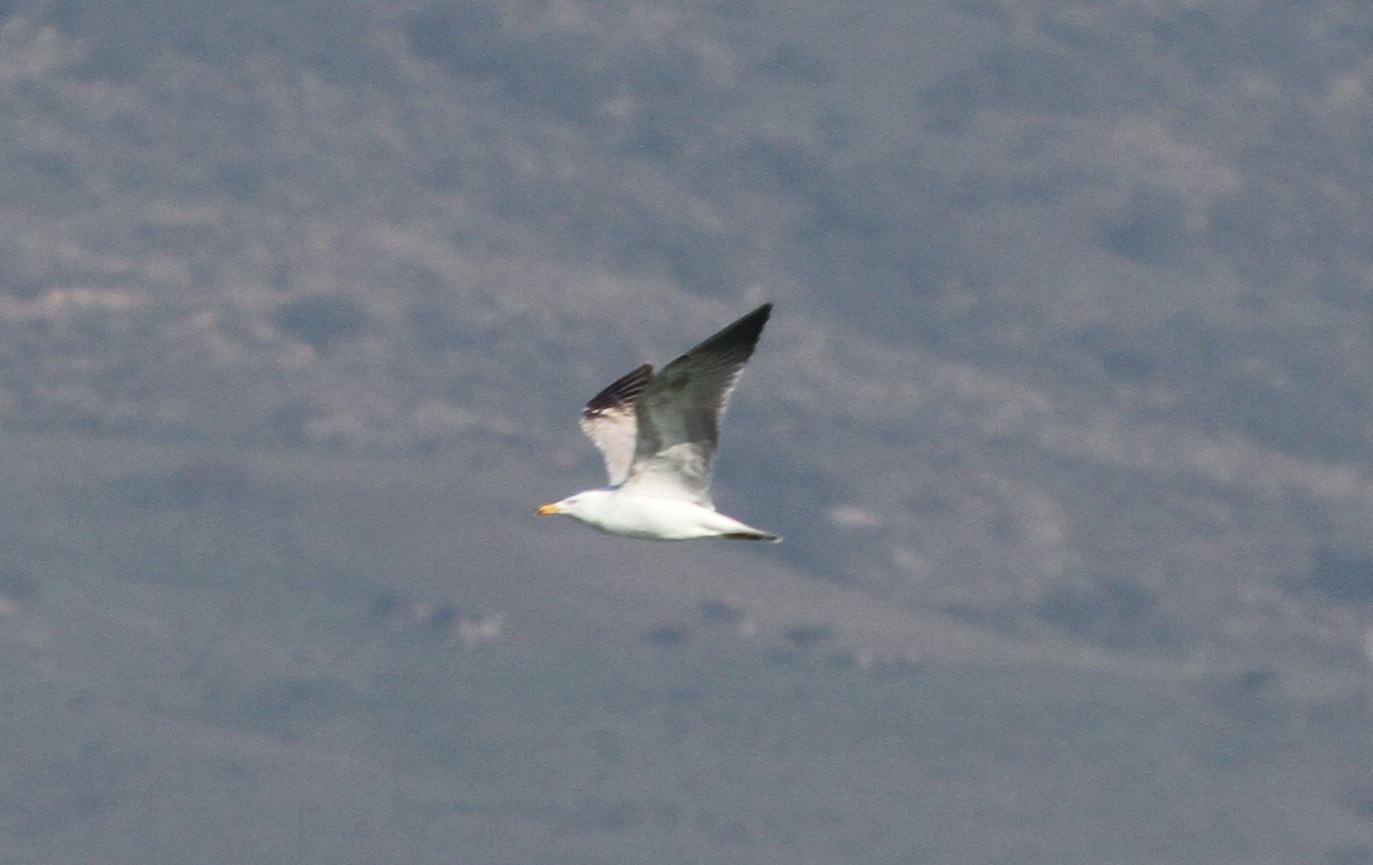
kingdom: Animalia
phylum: Chordata
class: Aves
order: Charadriiformes
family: Laridae
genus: Larus
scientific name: Larus michahellis
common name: Yellow-legged gull
